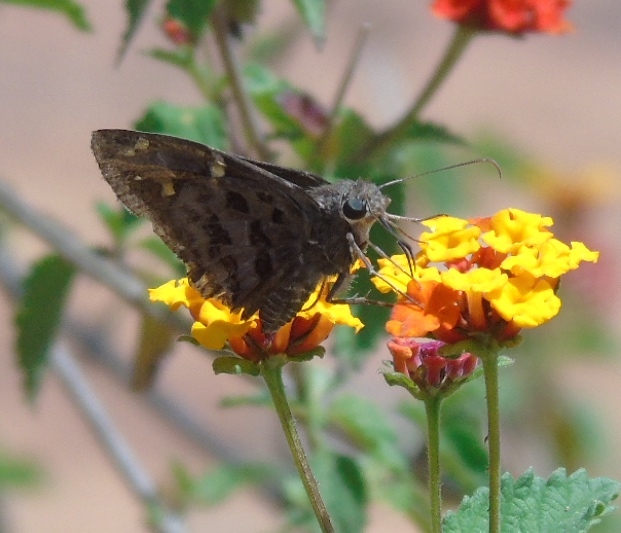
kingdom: Animalia
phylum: Arthropoda
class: Insecta
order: Lepidoptera
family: Hesperiidae
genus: Thorybes
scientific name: Thorybes
